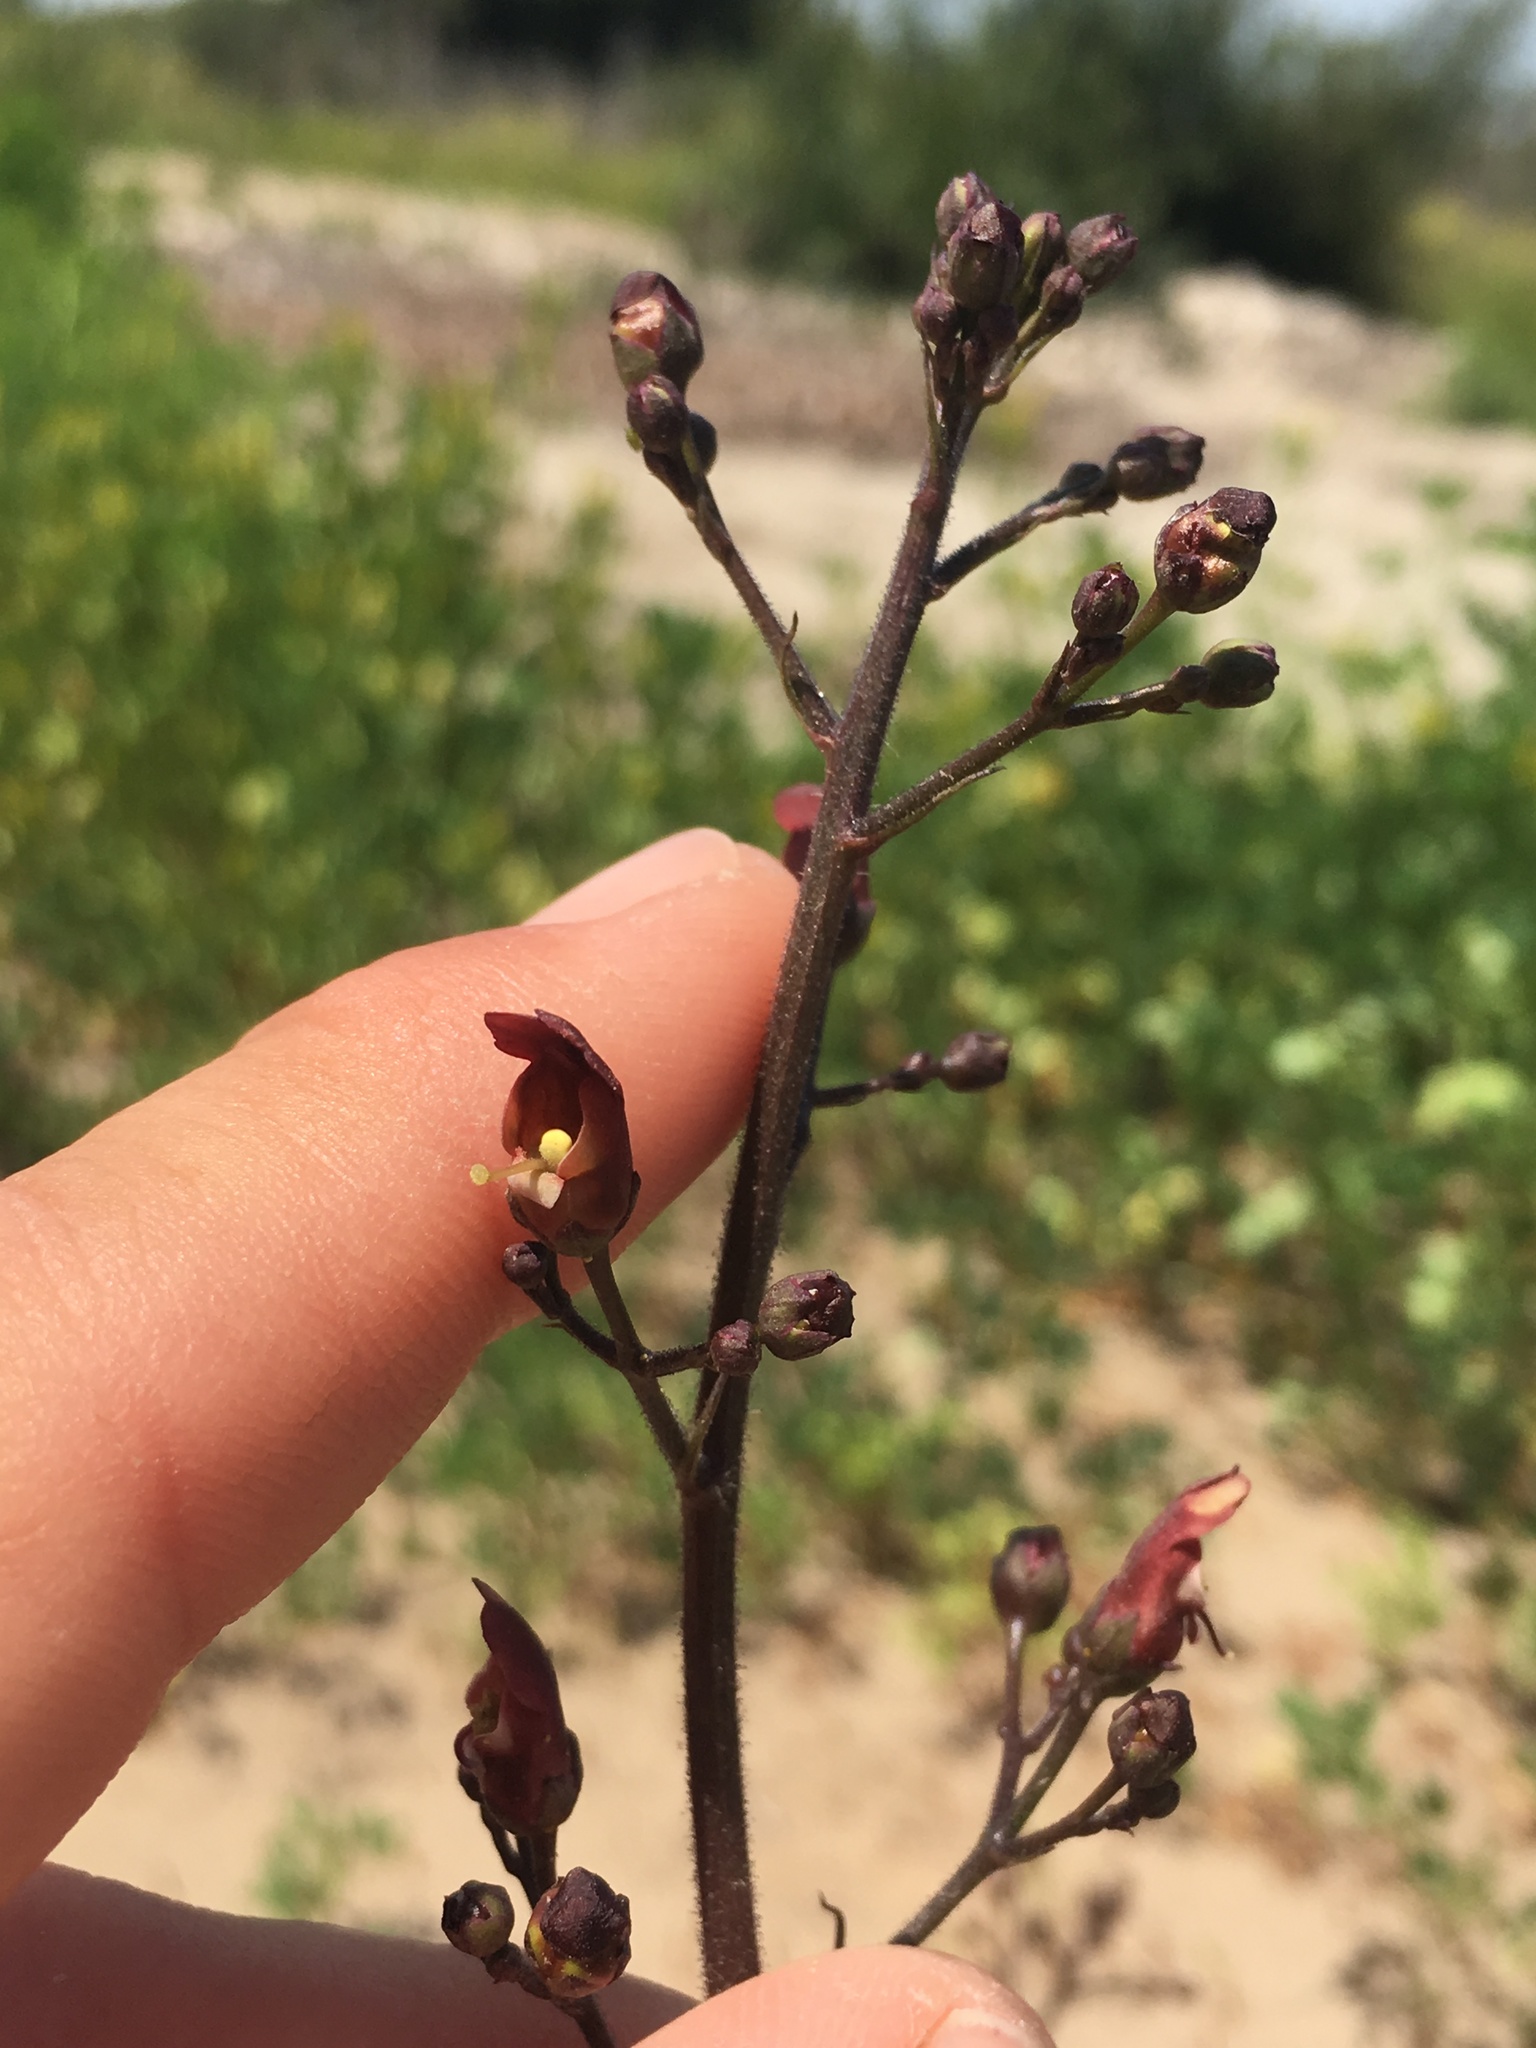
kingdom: Plantae
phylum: Tracheophyta
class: Magnoliopsida
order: Lamiales
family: Scrophulariaceae
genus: Scrophularia
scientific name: Scrophularia californica
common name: California figwort
